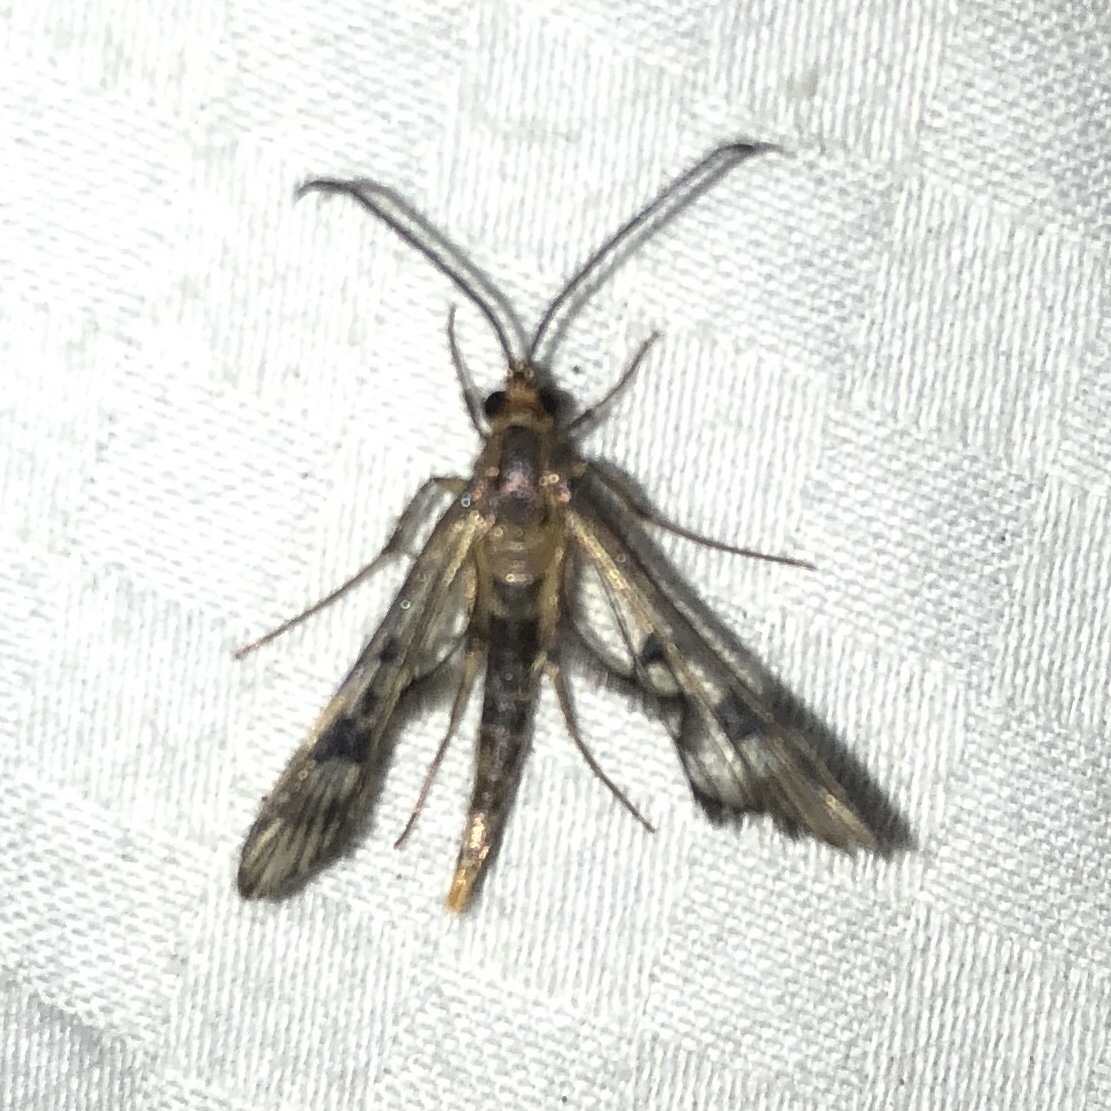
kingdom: Animalia
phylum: Arthropoda
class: Insecta
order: Lepidoptera
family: Sesiidae
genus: Synanthedon
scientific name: Synanthedon acerni
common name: Maple callus borer moth
